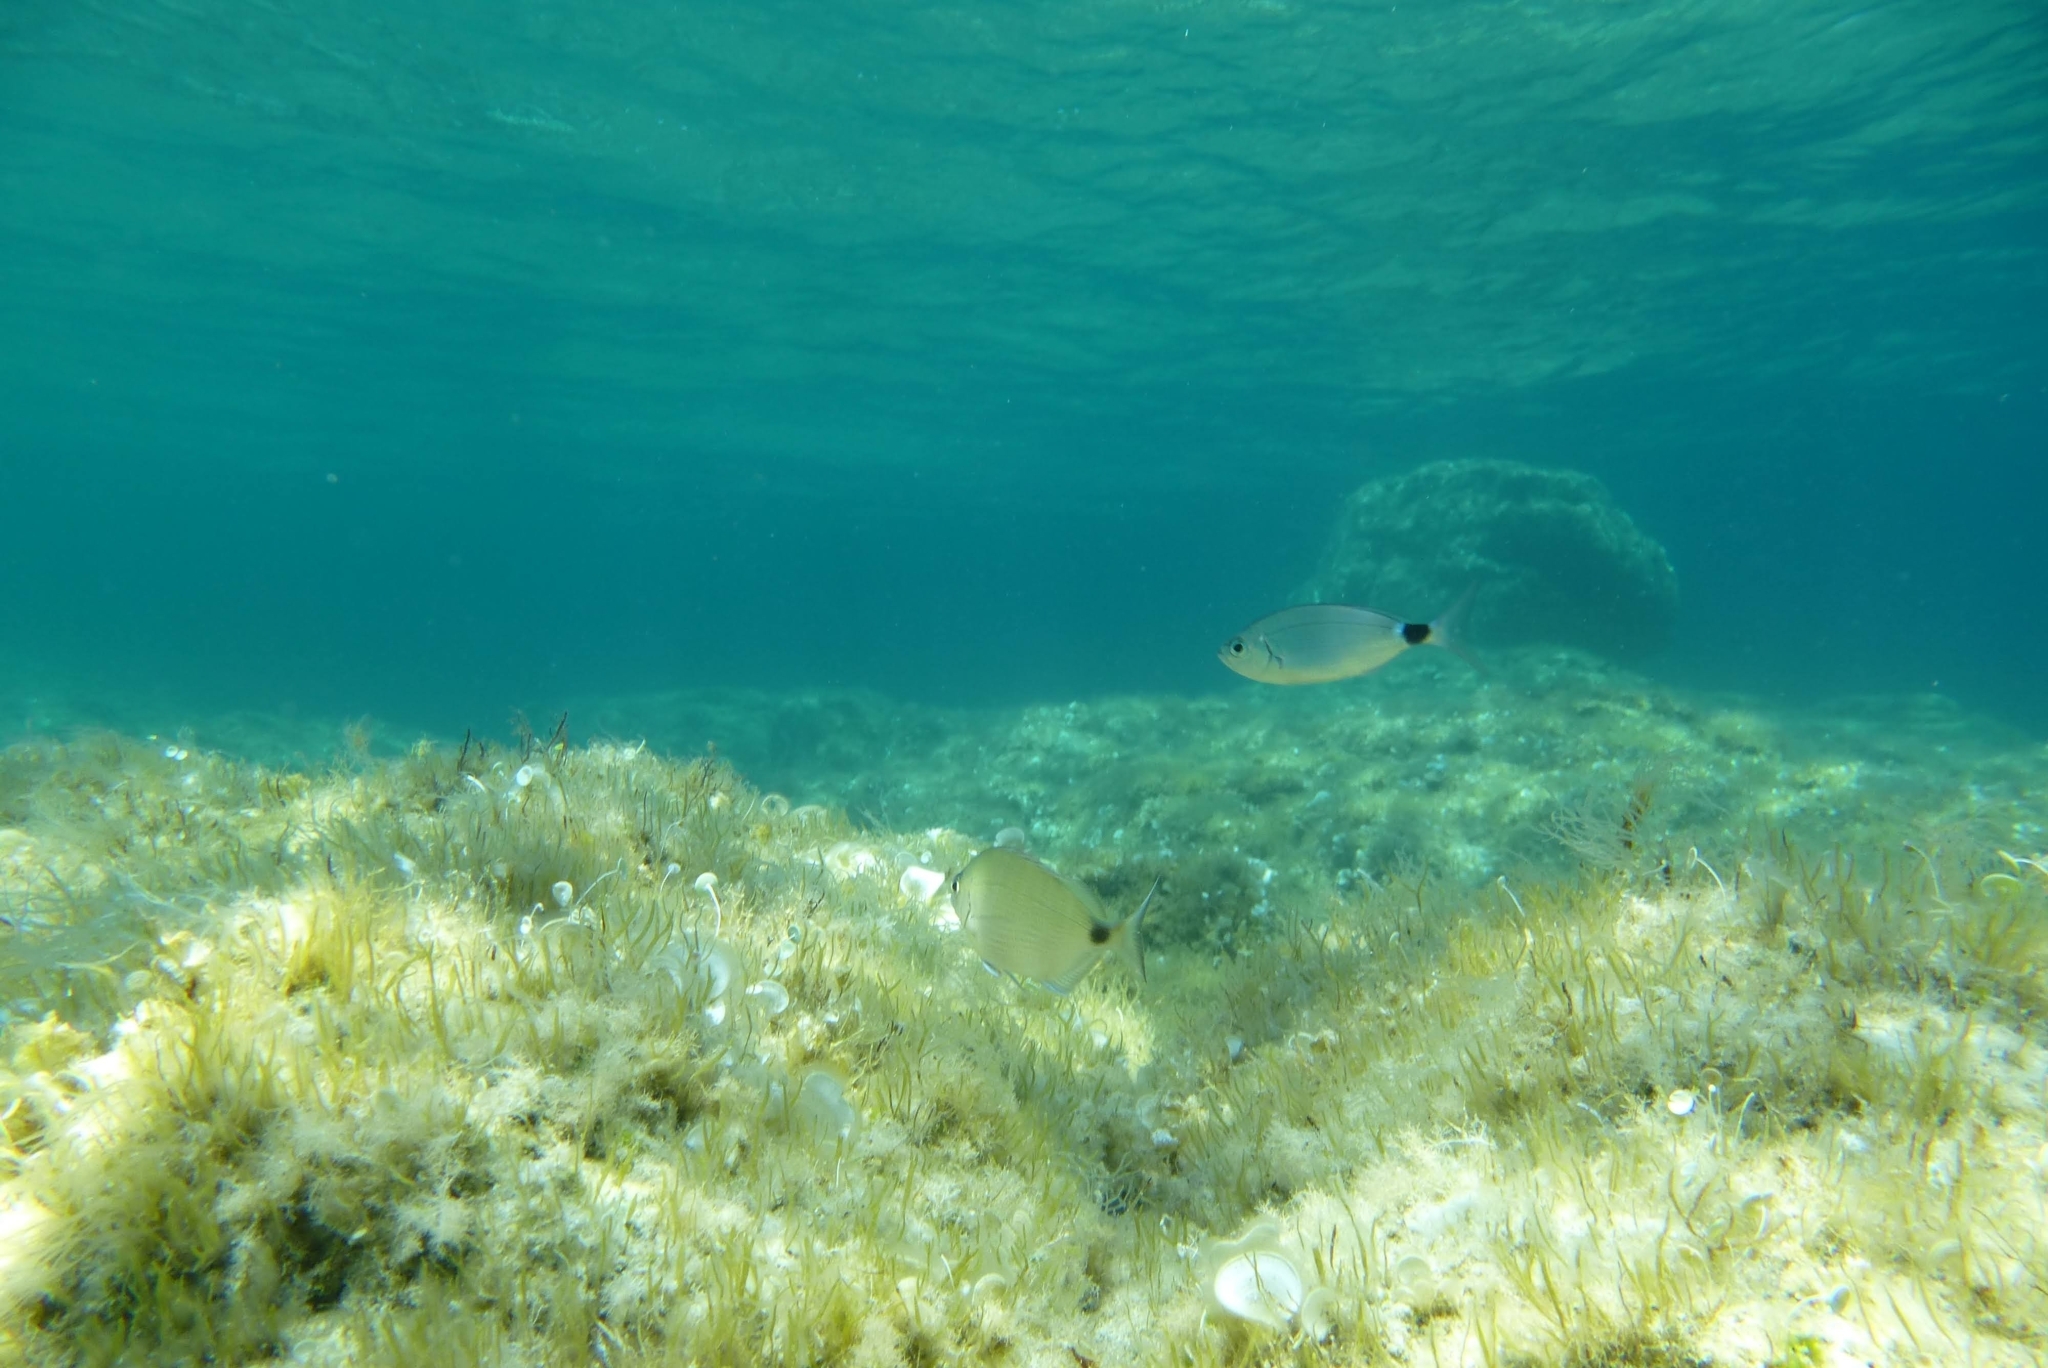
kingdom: Animalia
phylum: Chordata
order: Perciformes
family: Sparidae
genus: Oblada
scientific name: Oblada melanura
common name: Saddled seabream
